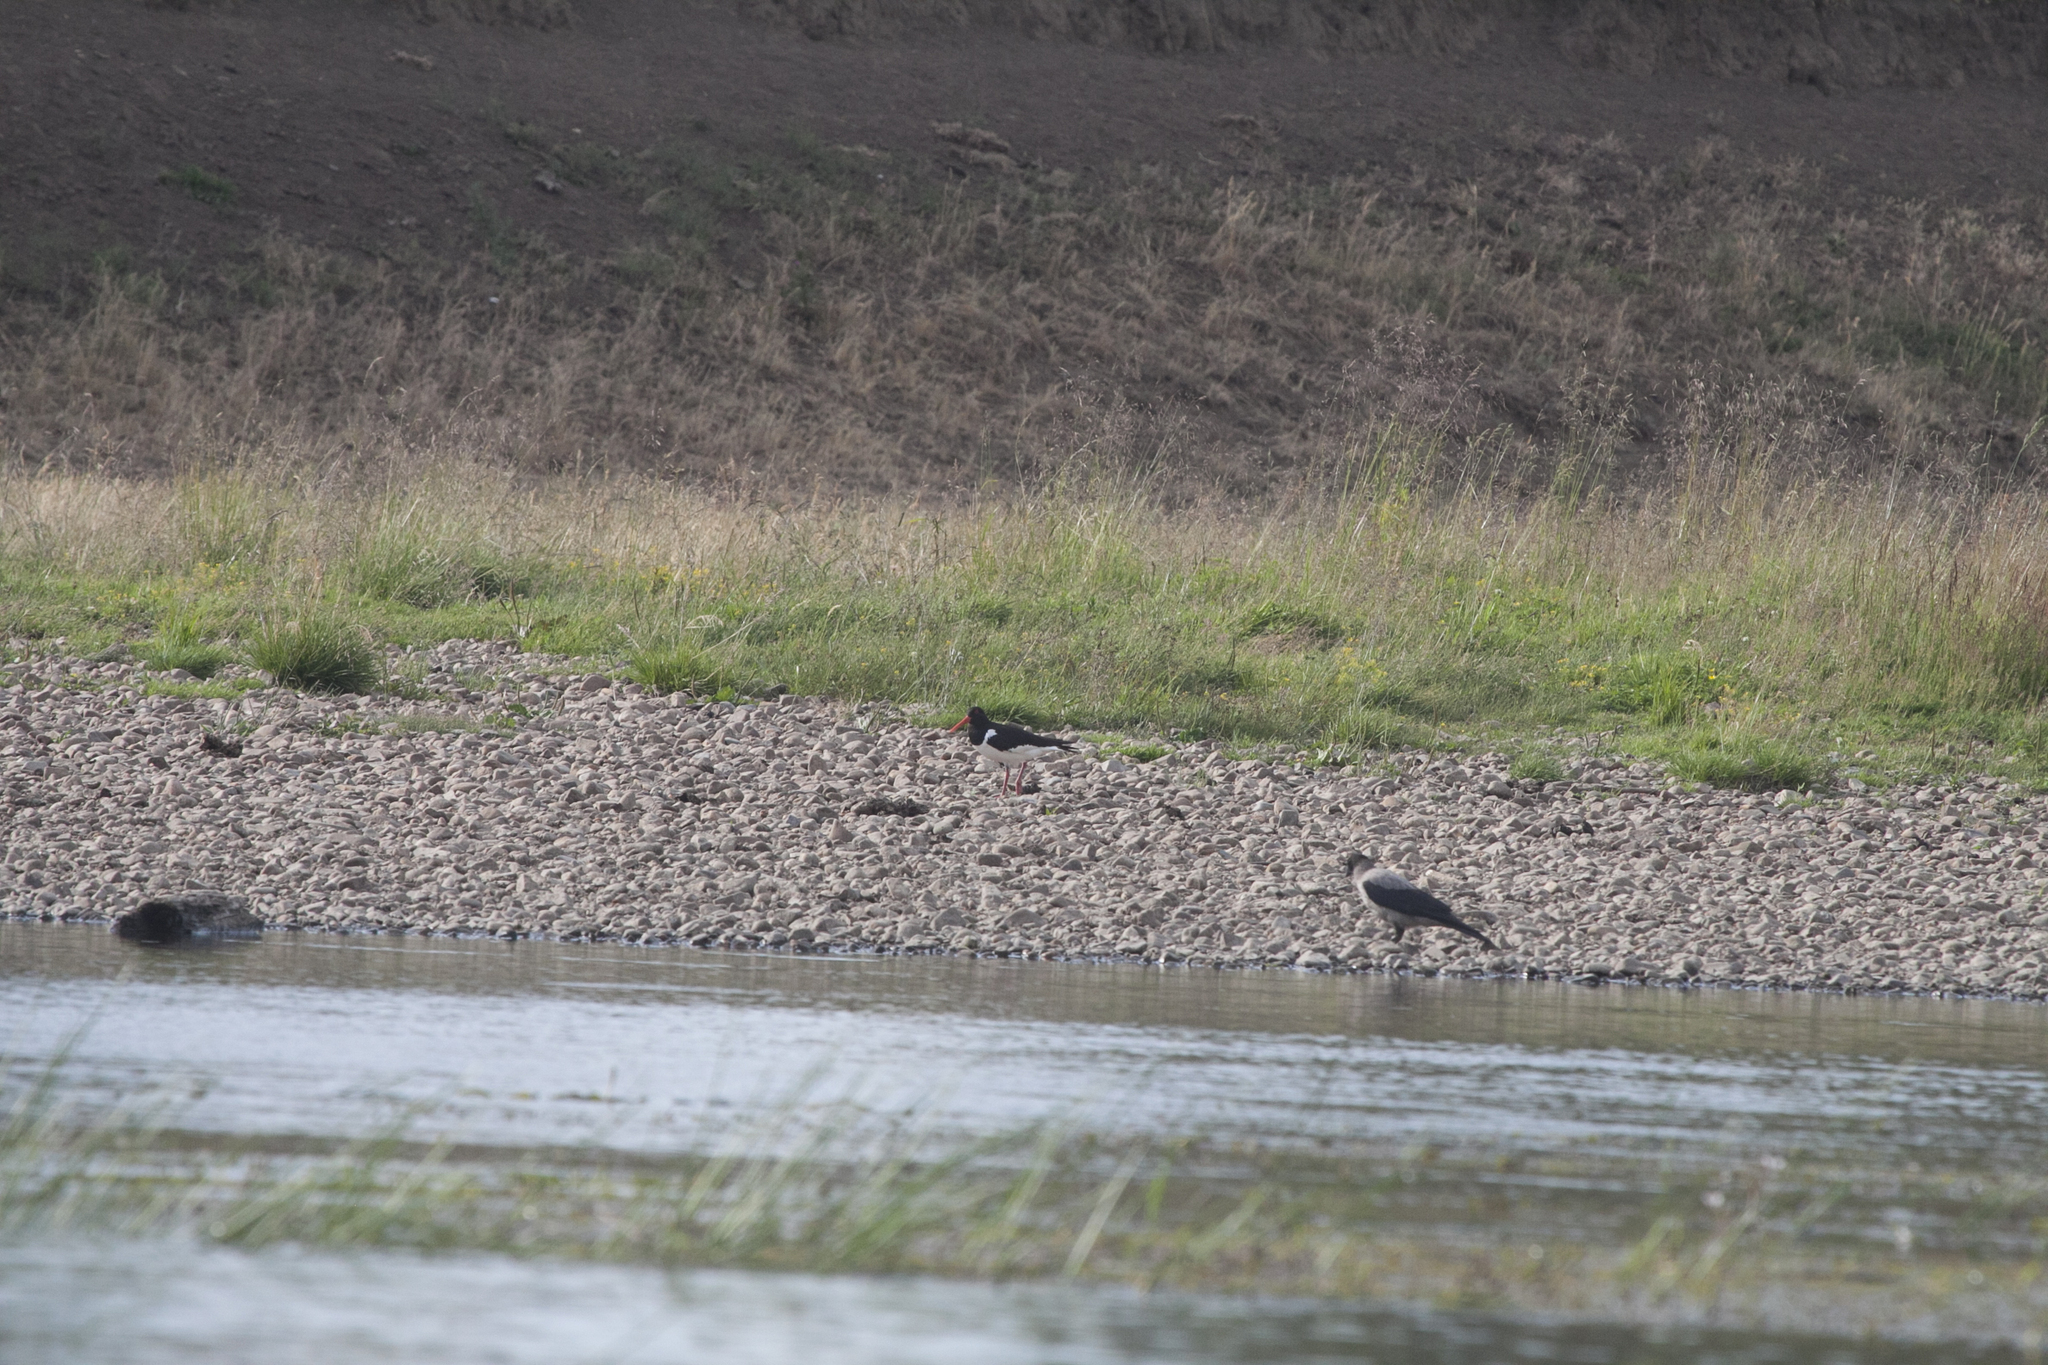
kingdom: Animalia
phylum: Chordata
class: Aves
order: Charadriiformes
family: Haematopodidae
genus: Haematopus
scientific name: Haematopus ostralegus
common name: Eurasian oystercatcher
